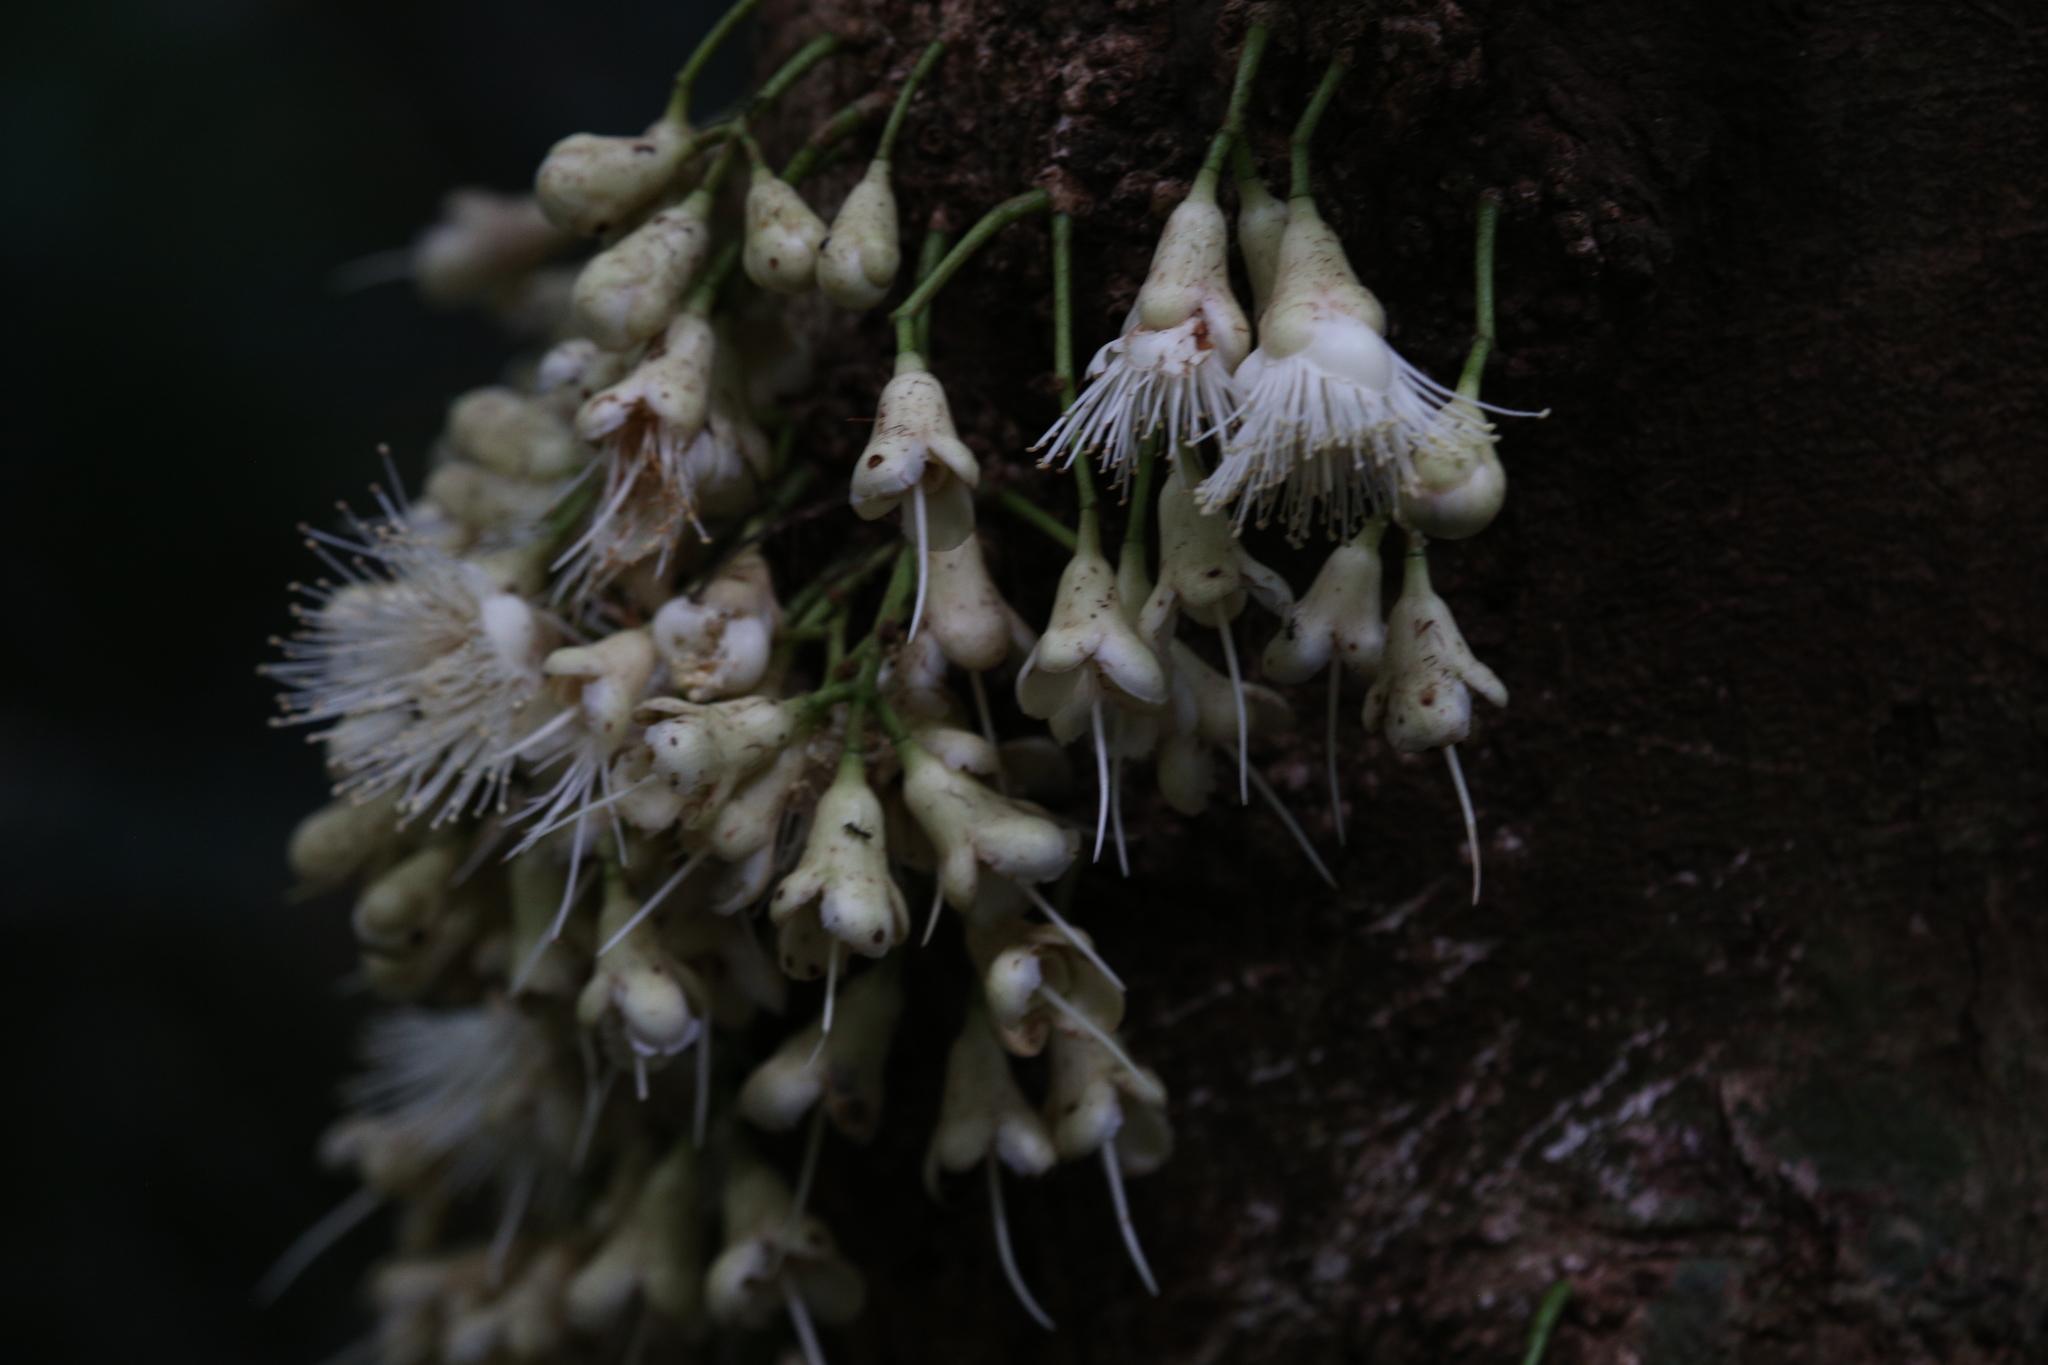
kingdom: Plantae
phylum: Tracheophyta
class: Magnoliopsida
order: Myrtales
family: Myrtaceae
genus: Syzygium
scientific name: Syzygium cormiflorum
